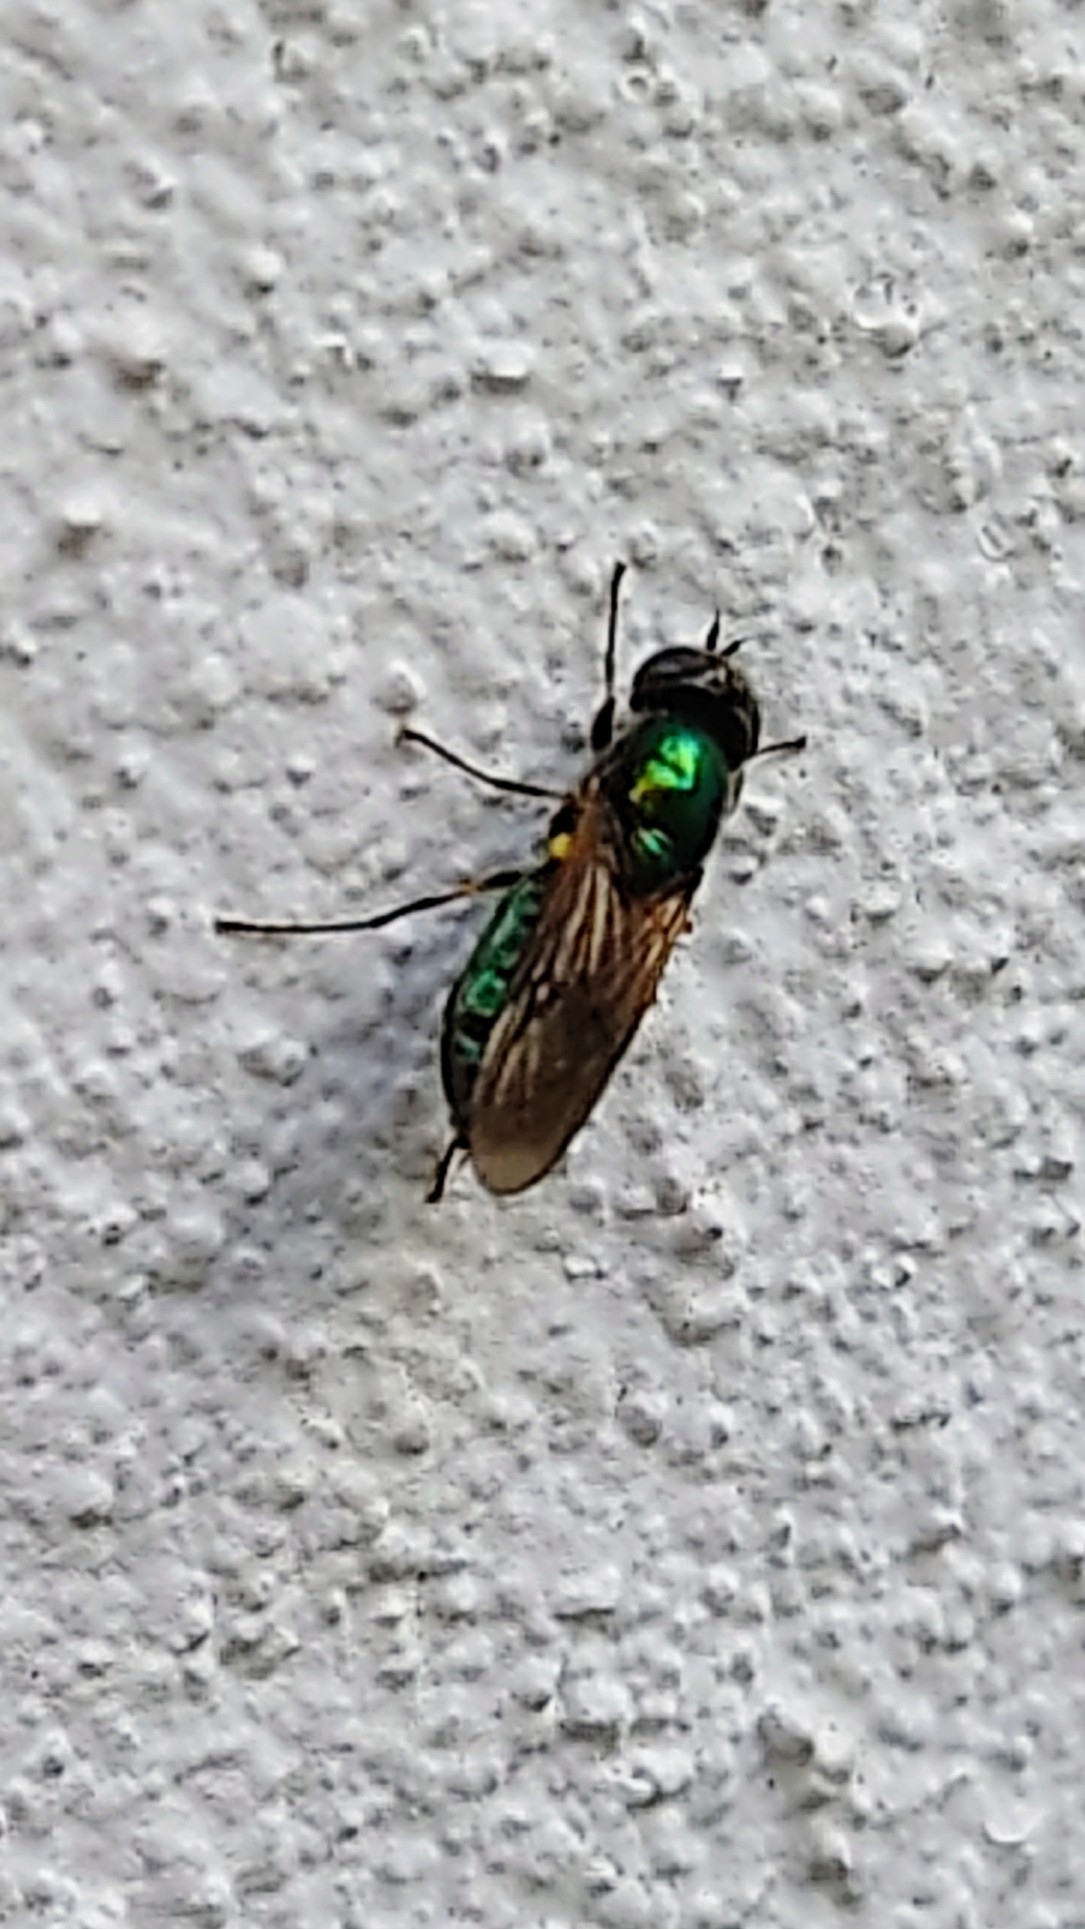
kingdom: Animalia
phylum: Arthropoda
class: Insecta
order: Diptera
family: Stratiomyidae
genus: Chloromyia
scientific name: Chloromyia formosa
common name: Soldier fly
